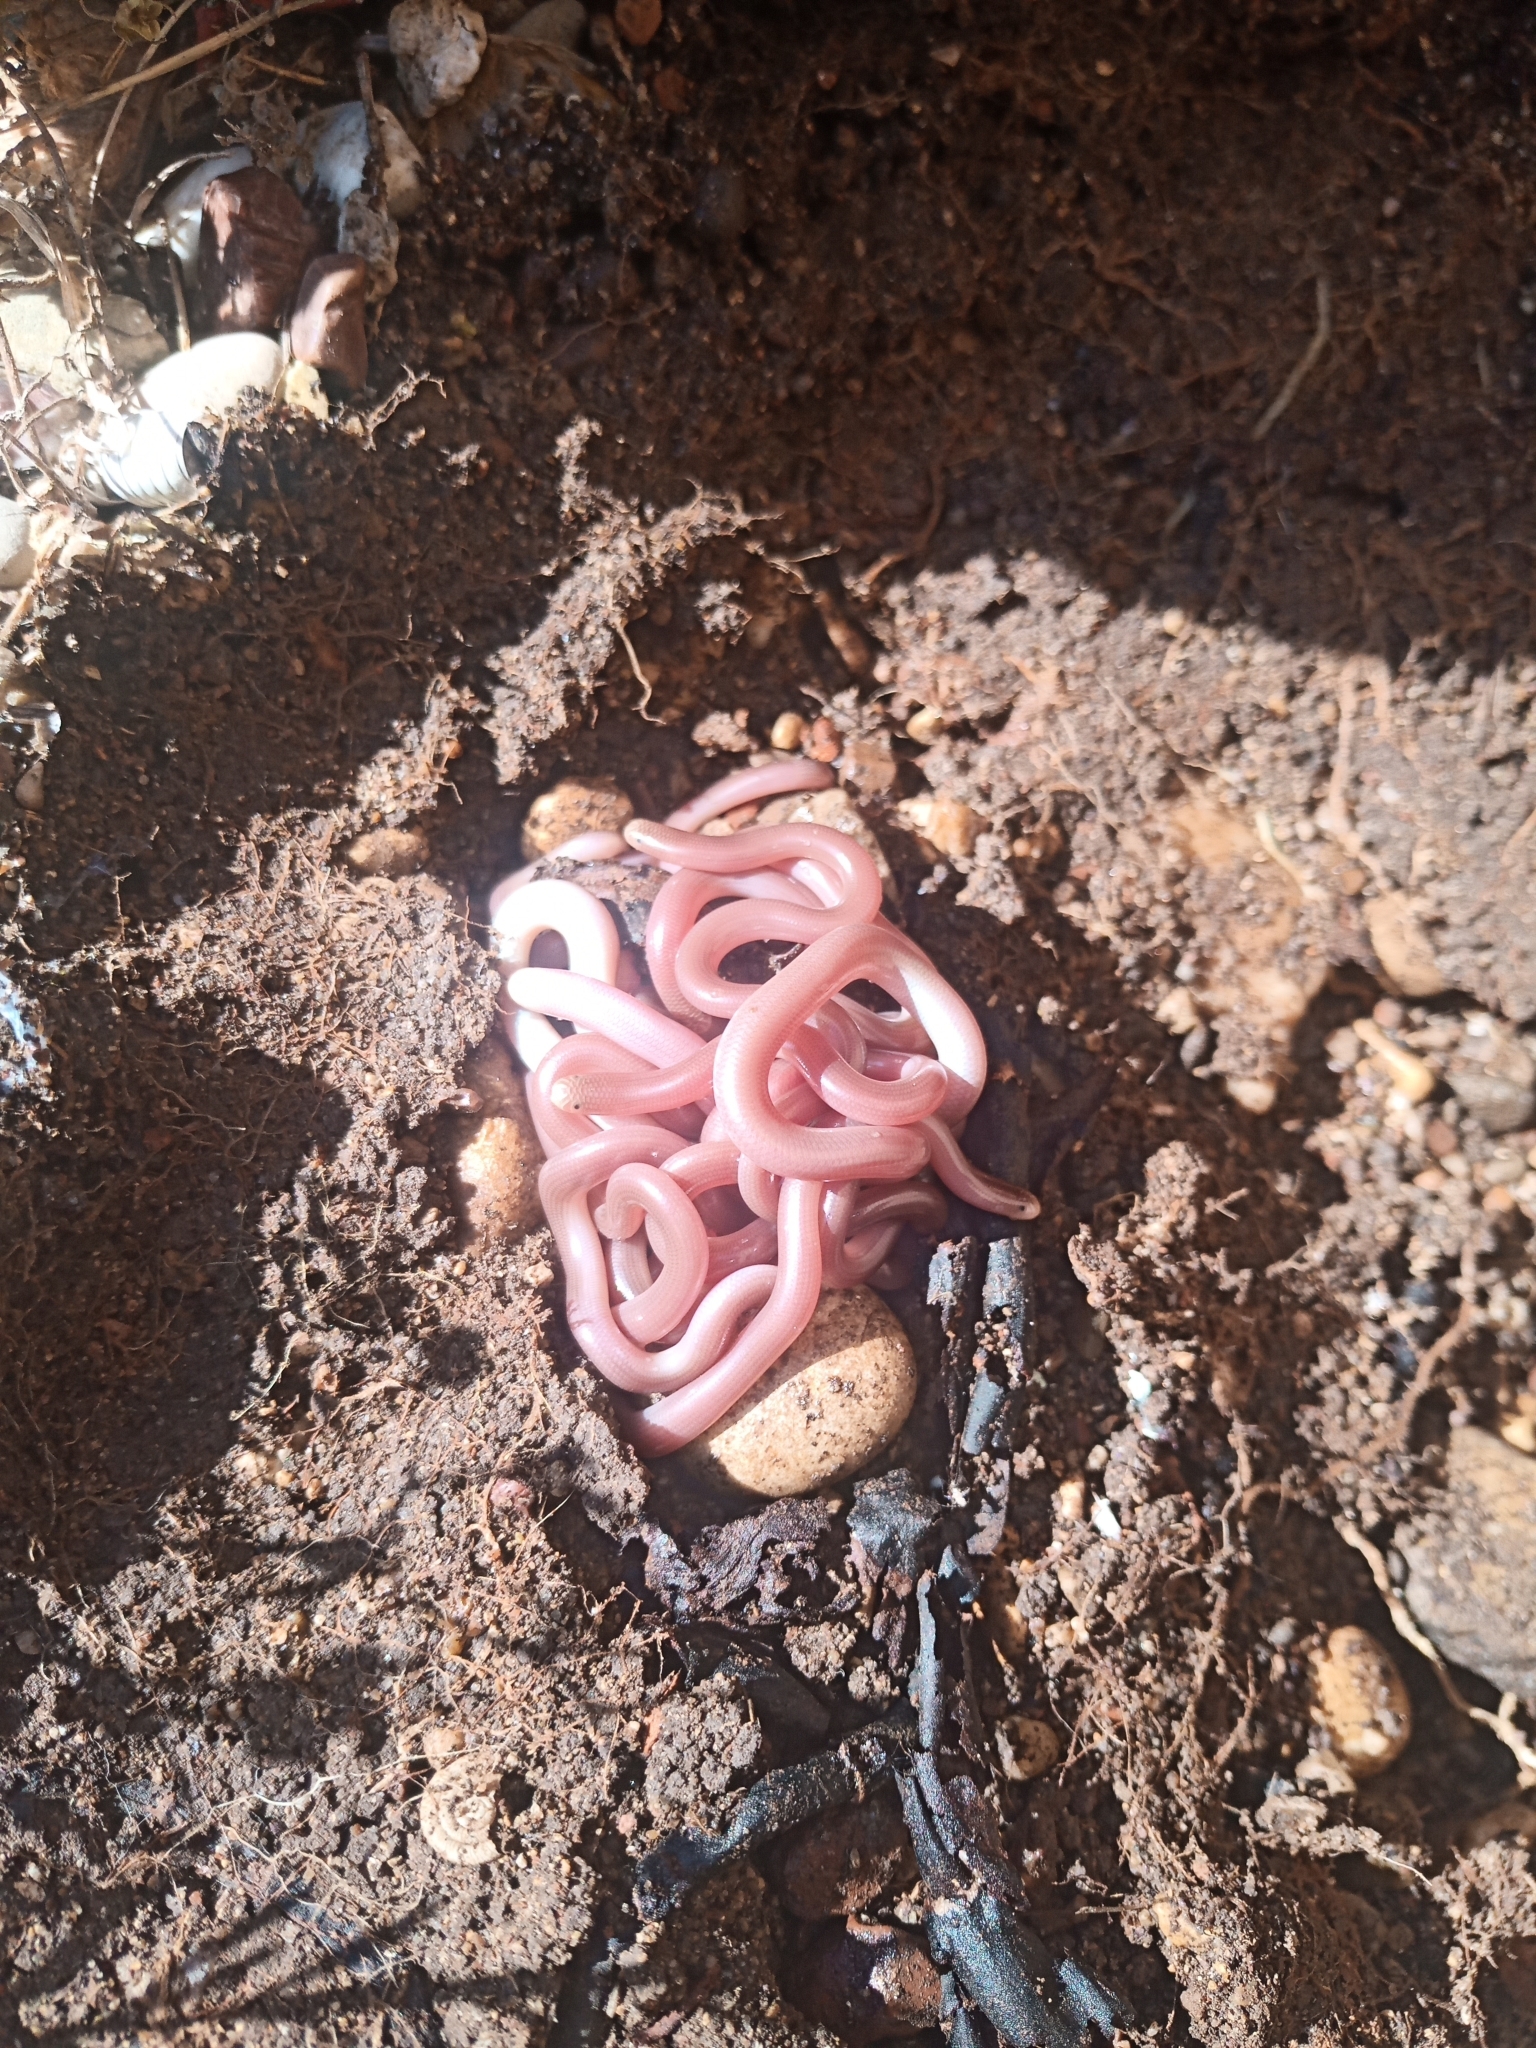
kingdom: Animalia
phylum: Chordata
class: Squamata
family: Typhlopidae
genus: Xerotyphlops
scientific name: Xerotyphlops vermicularis
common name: Eurasian blind snake
